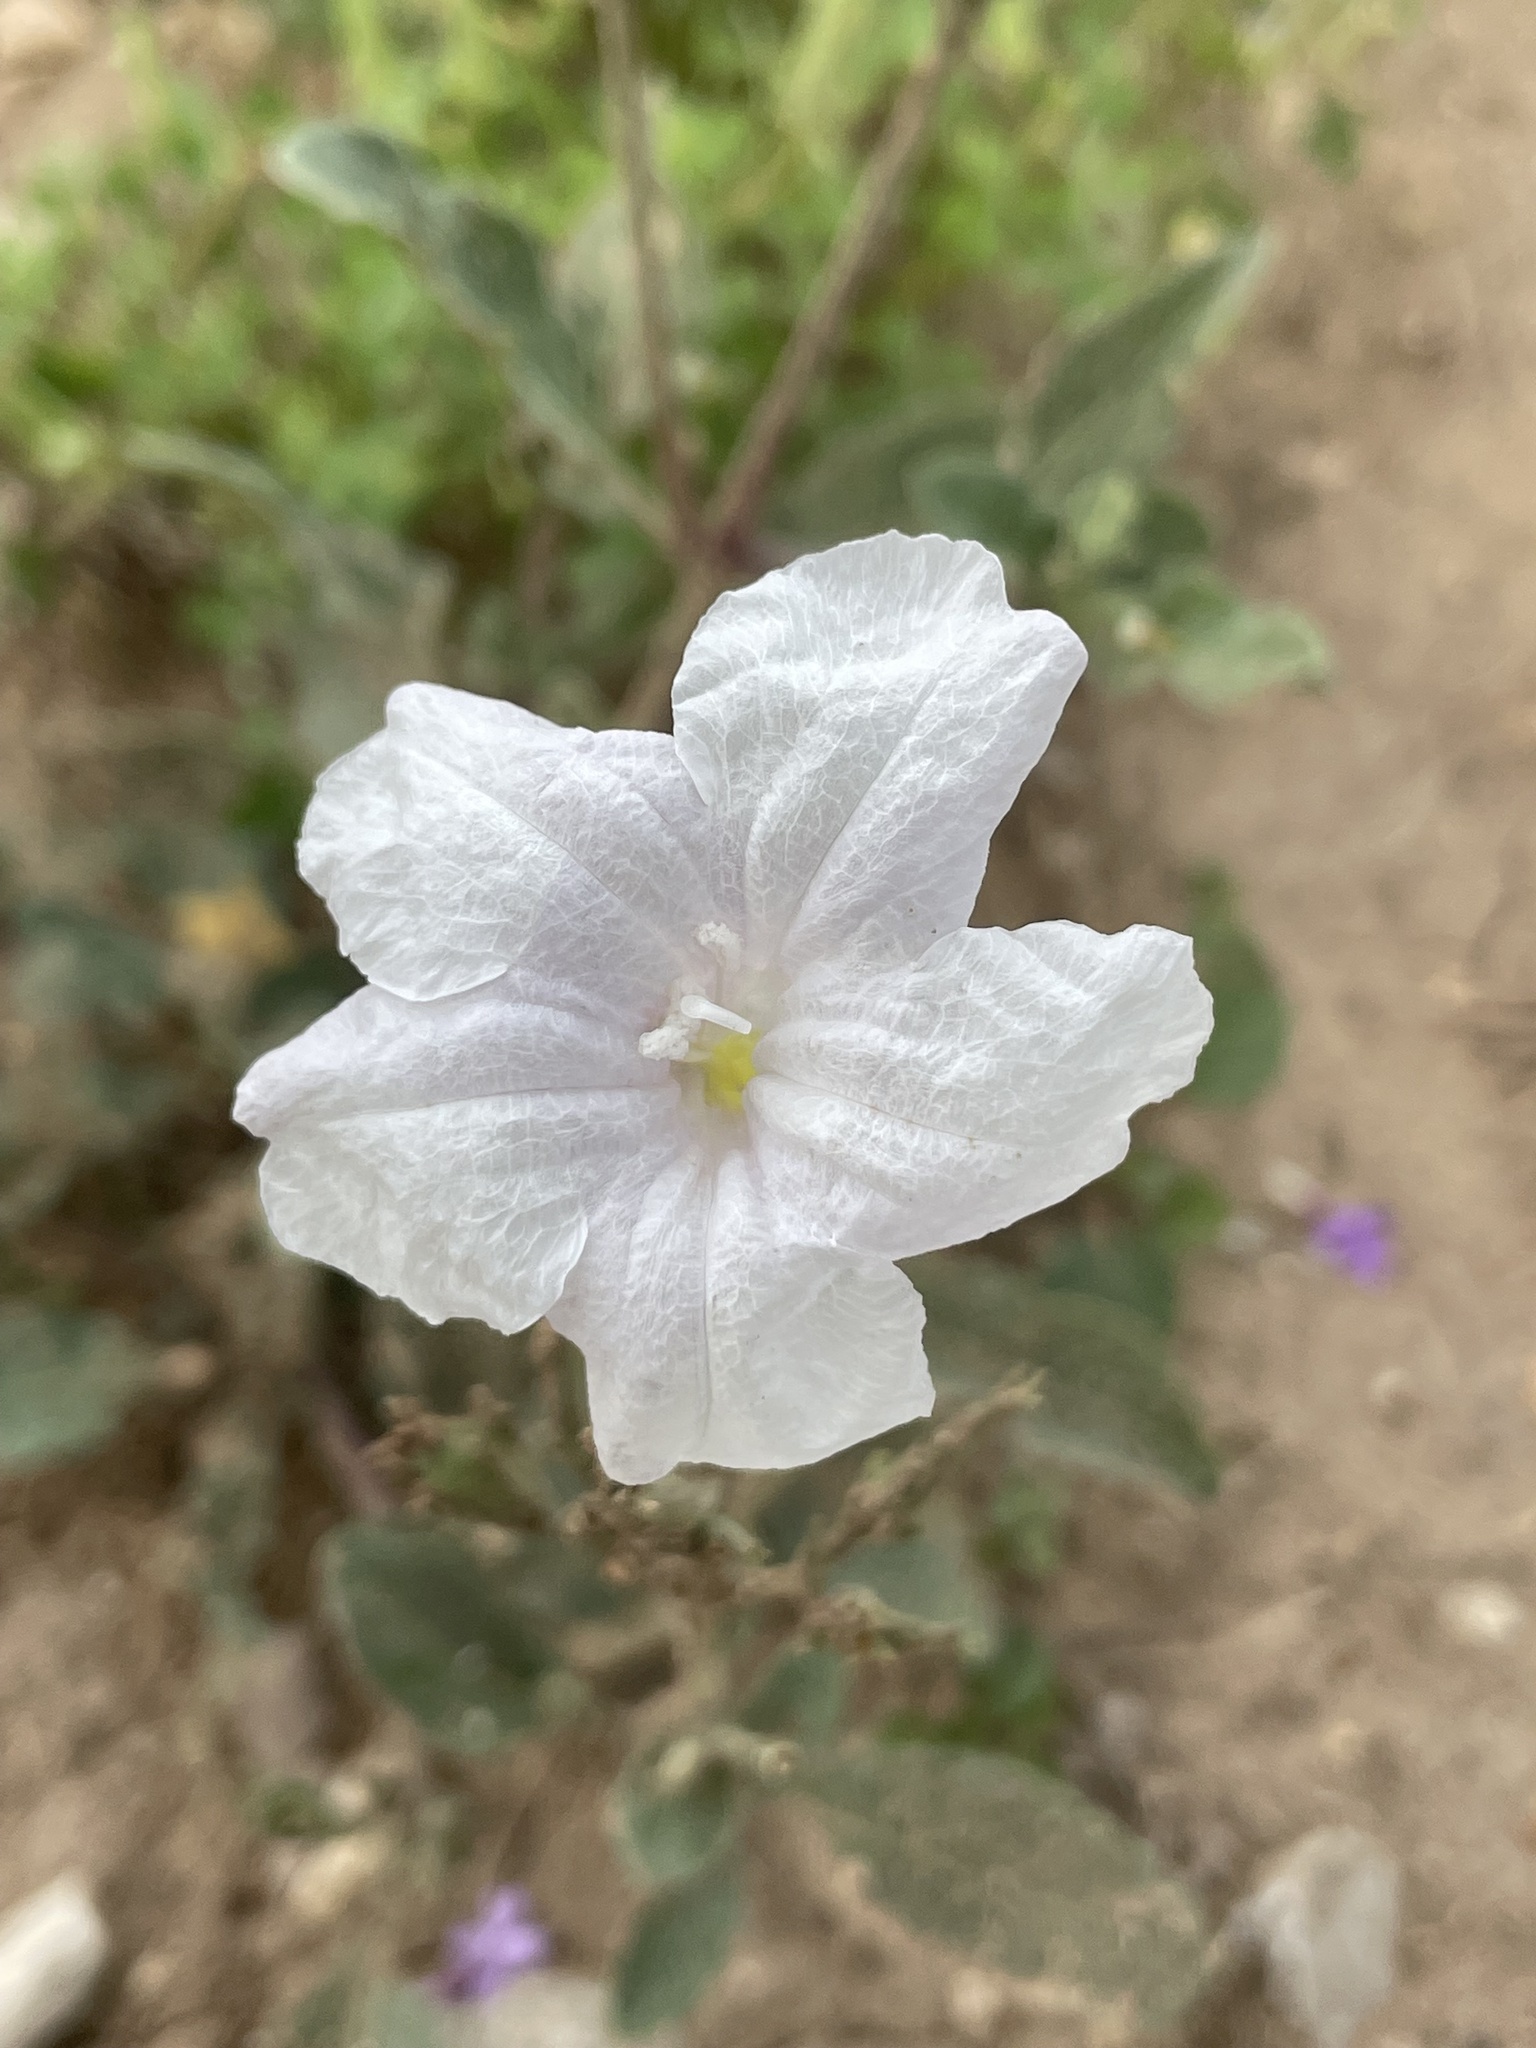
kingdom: Plantae
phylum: Tracheophyta
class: Magnoliopsida
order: Lamiales
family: Acanthaceae
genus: Ruellia
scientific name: Ruellia metziae
